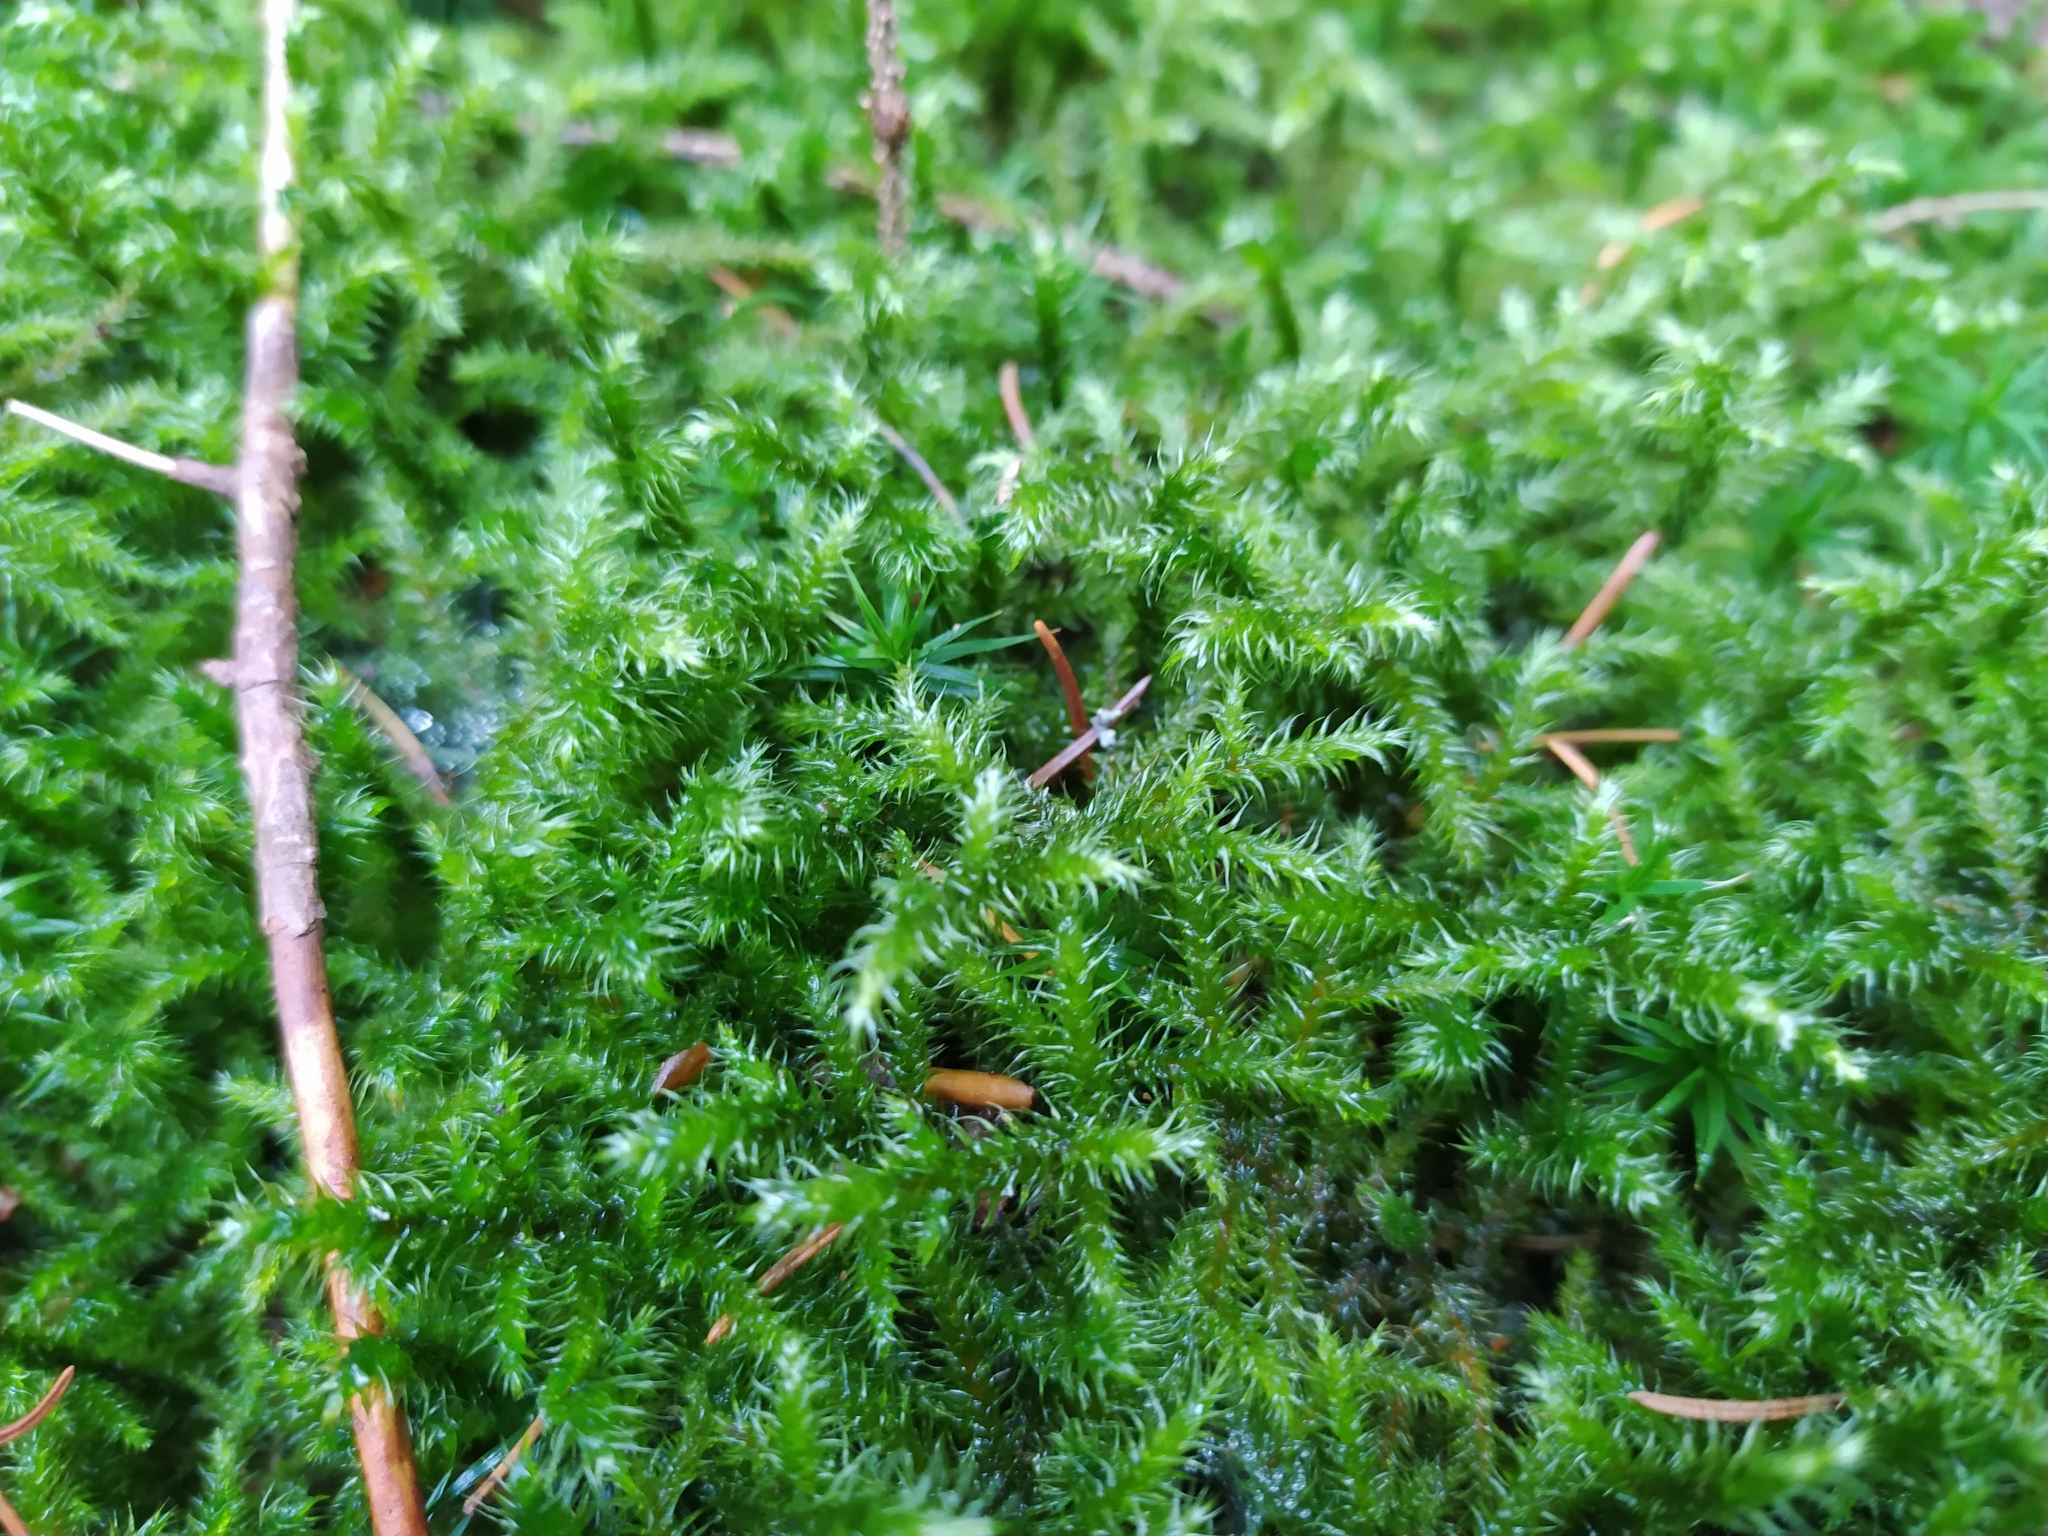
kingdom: Plantae
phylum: Bryophyta
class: Bryopsida
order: Hypnales
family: Hylocomiaceae
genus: Rhytidiadelphus
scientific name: Rhytidiadelphus loreus
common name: Lanky moss
